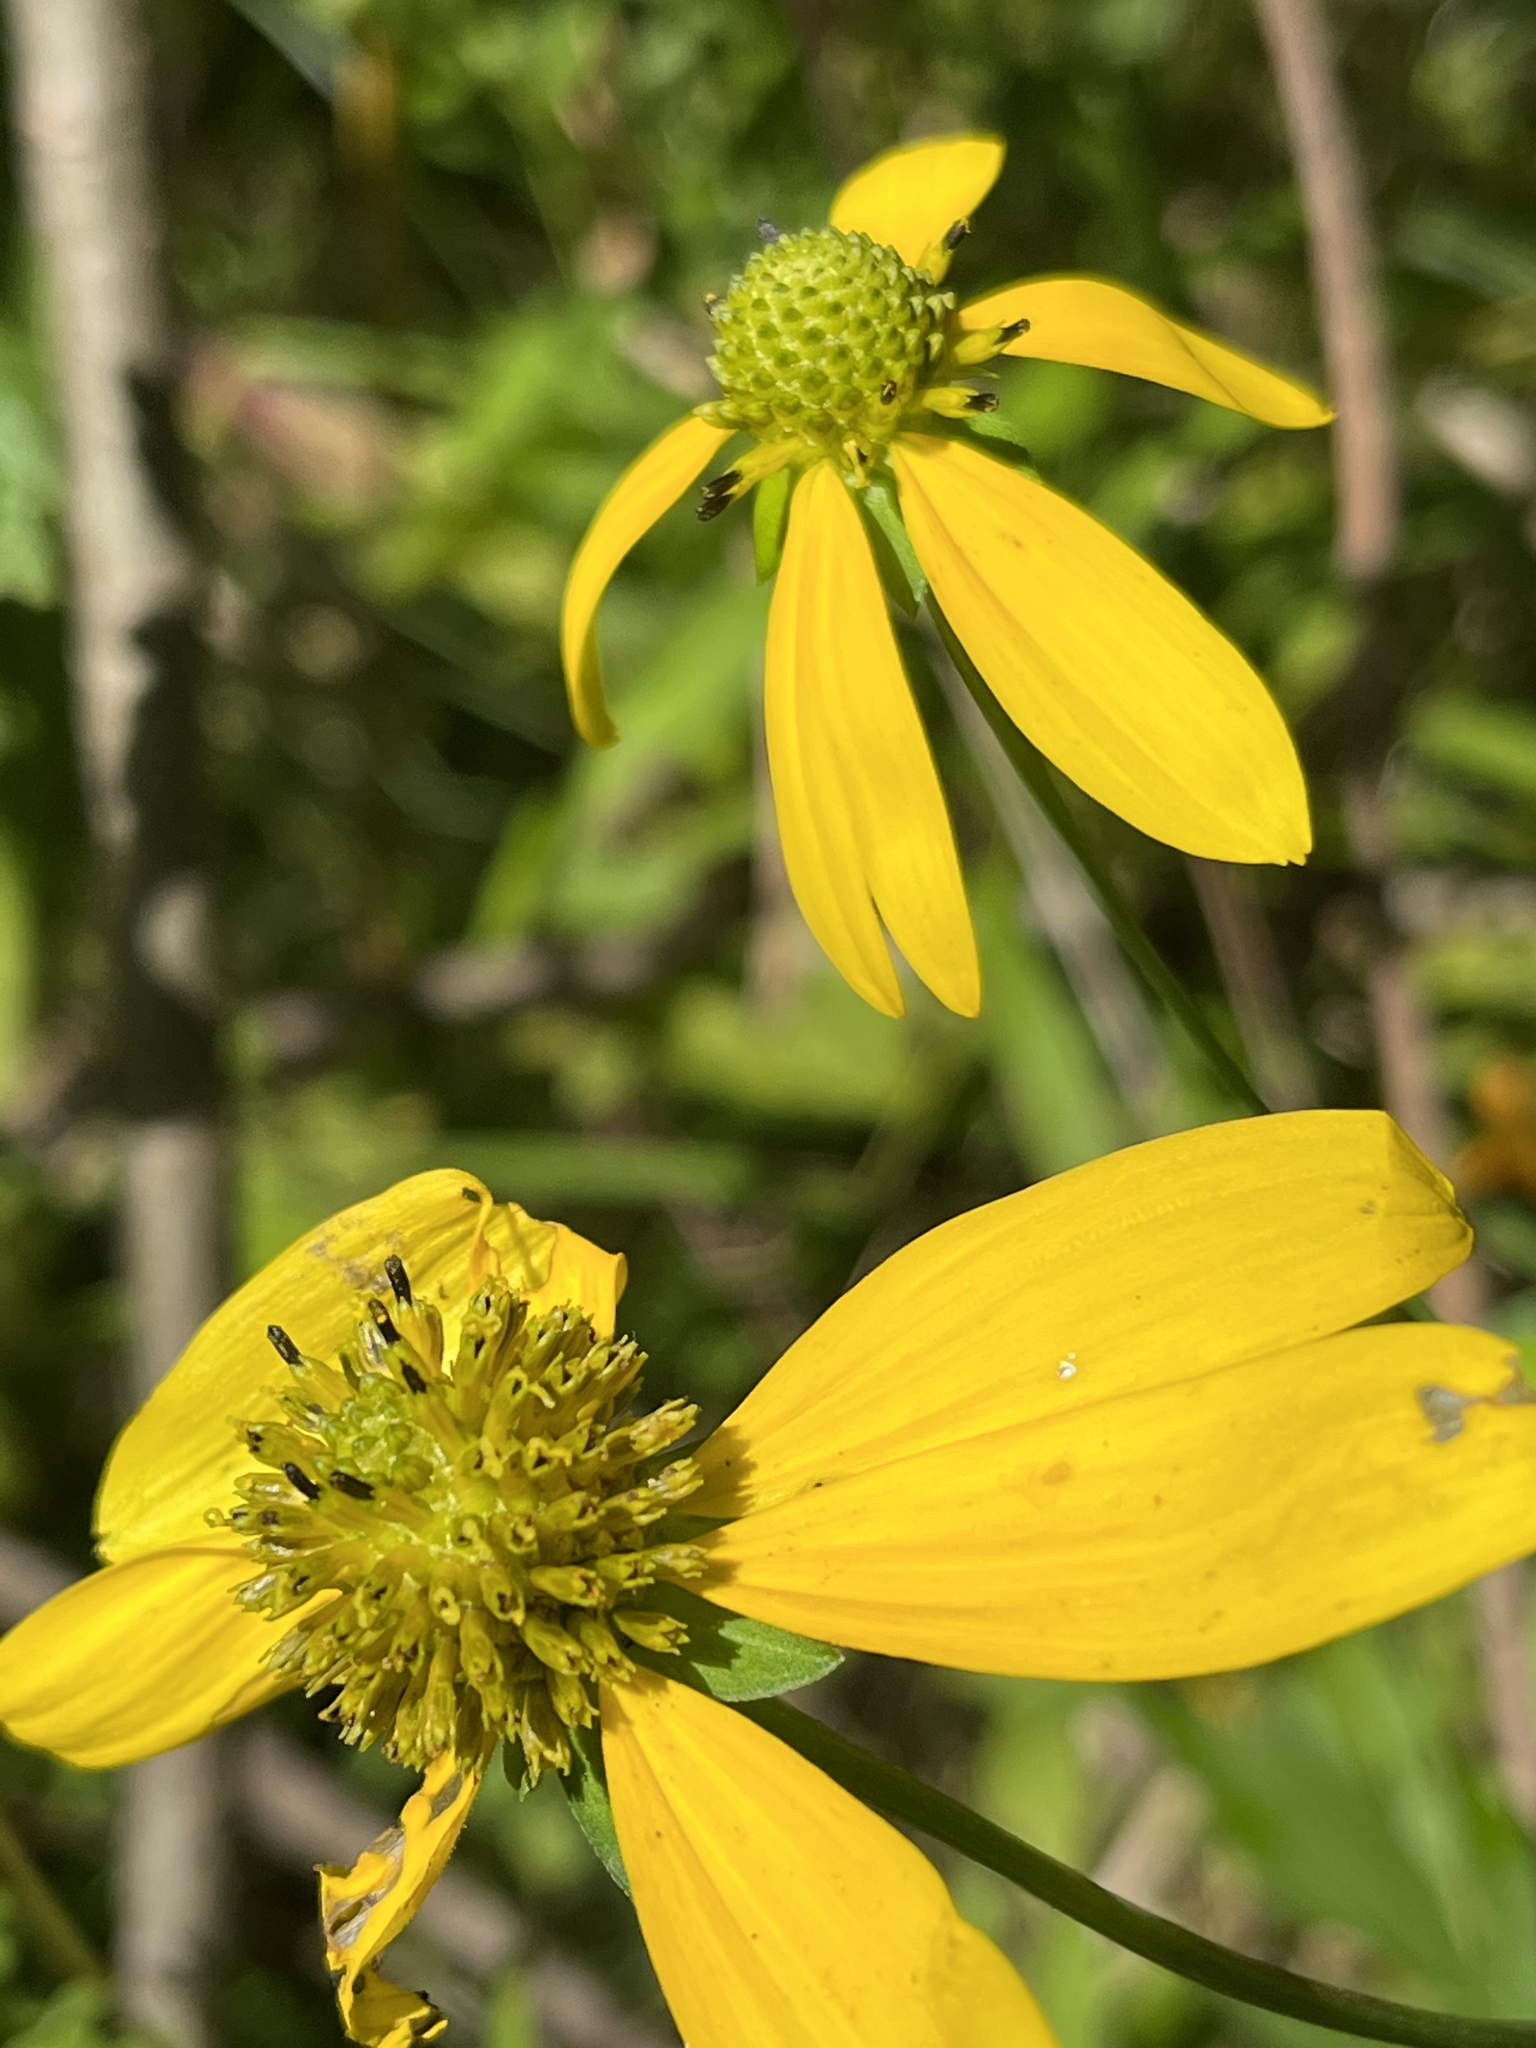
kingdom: Plantae
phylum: Tracheophyta
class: Magnoliopsida
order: Asterales
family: Asteraceae
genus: Rudbeckia
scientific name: Rudbeckia laciniata
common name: Coneflower
